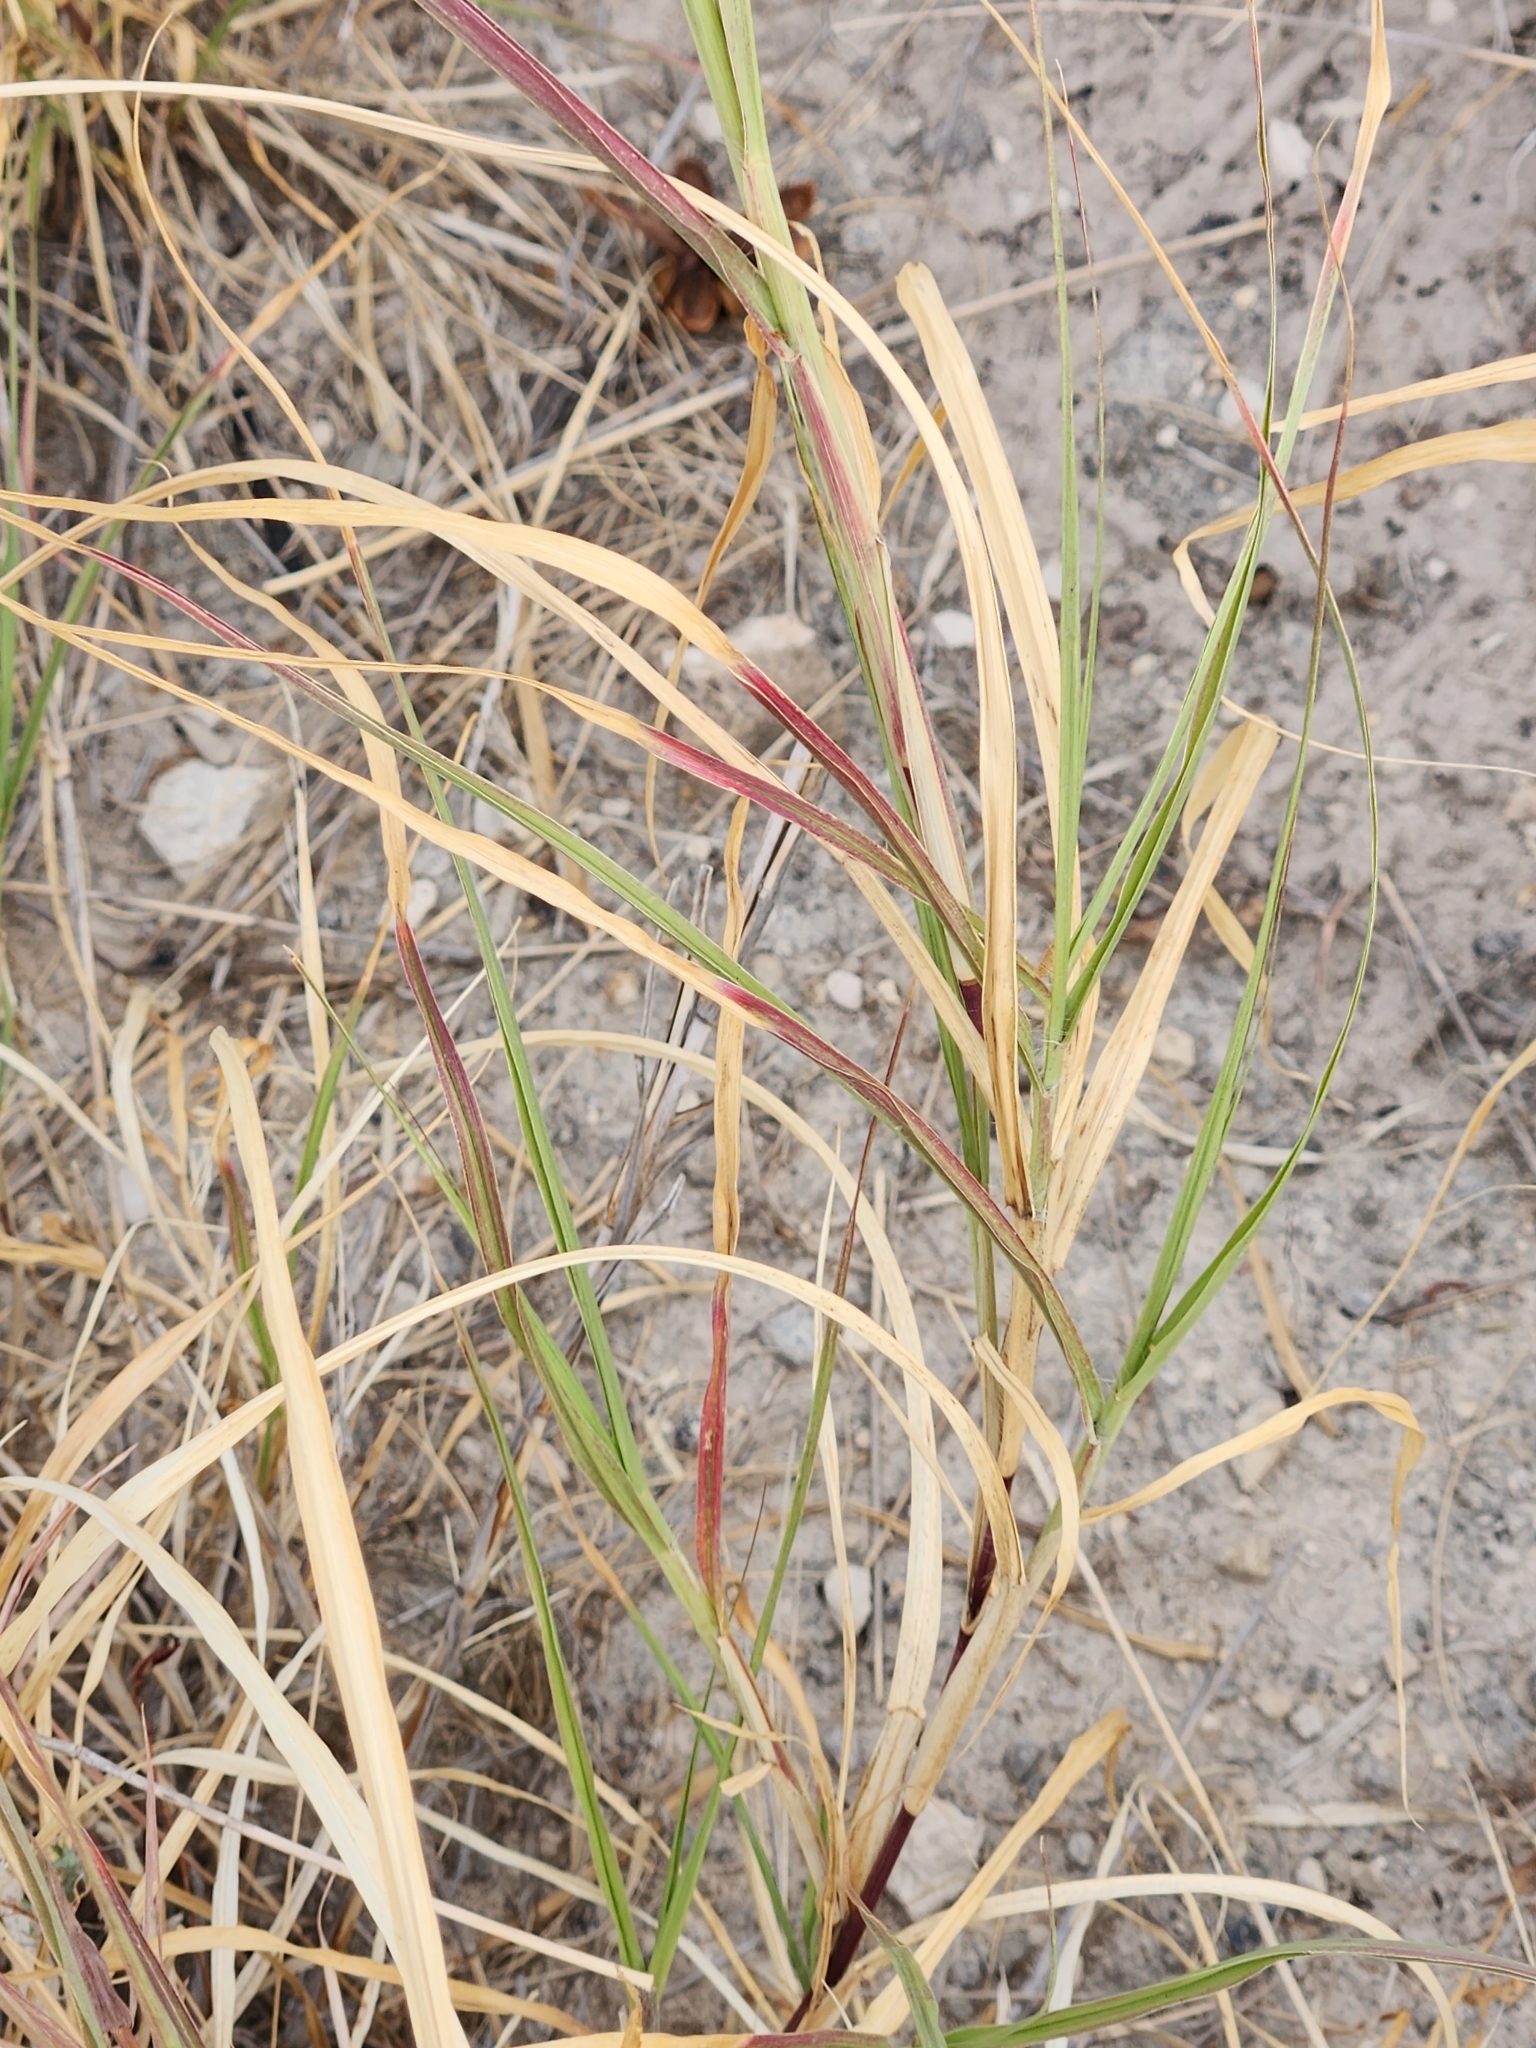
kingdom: Plantae
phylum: Tracheophyta
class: Liliopsida
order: Poales
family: Poaceae
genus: Cenchrus
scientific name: Cenchrus ciliaris
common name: Buffelgrass
